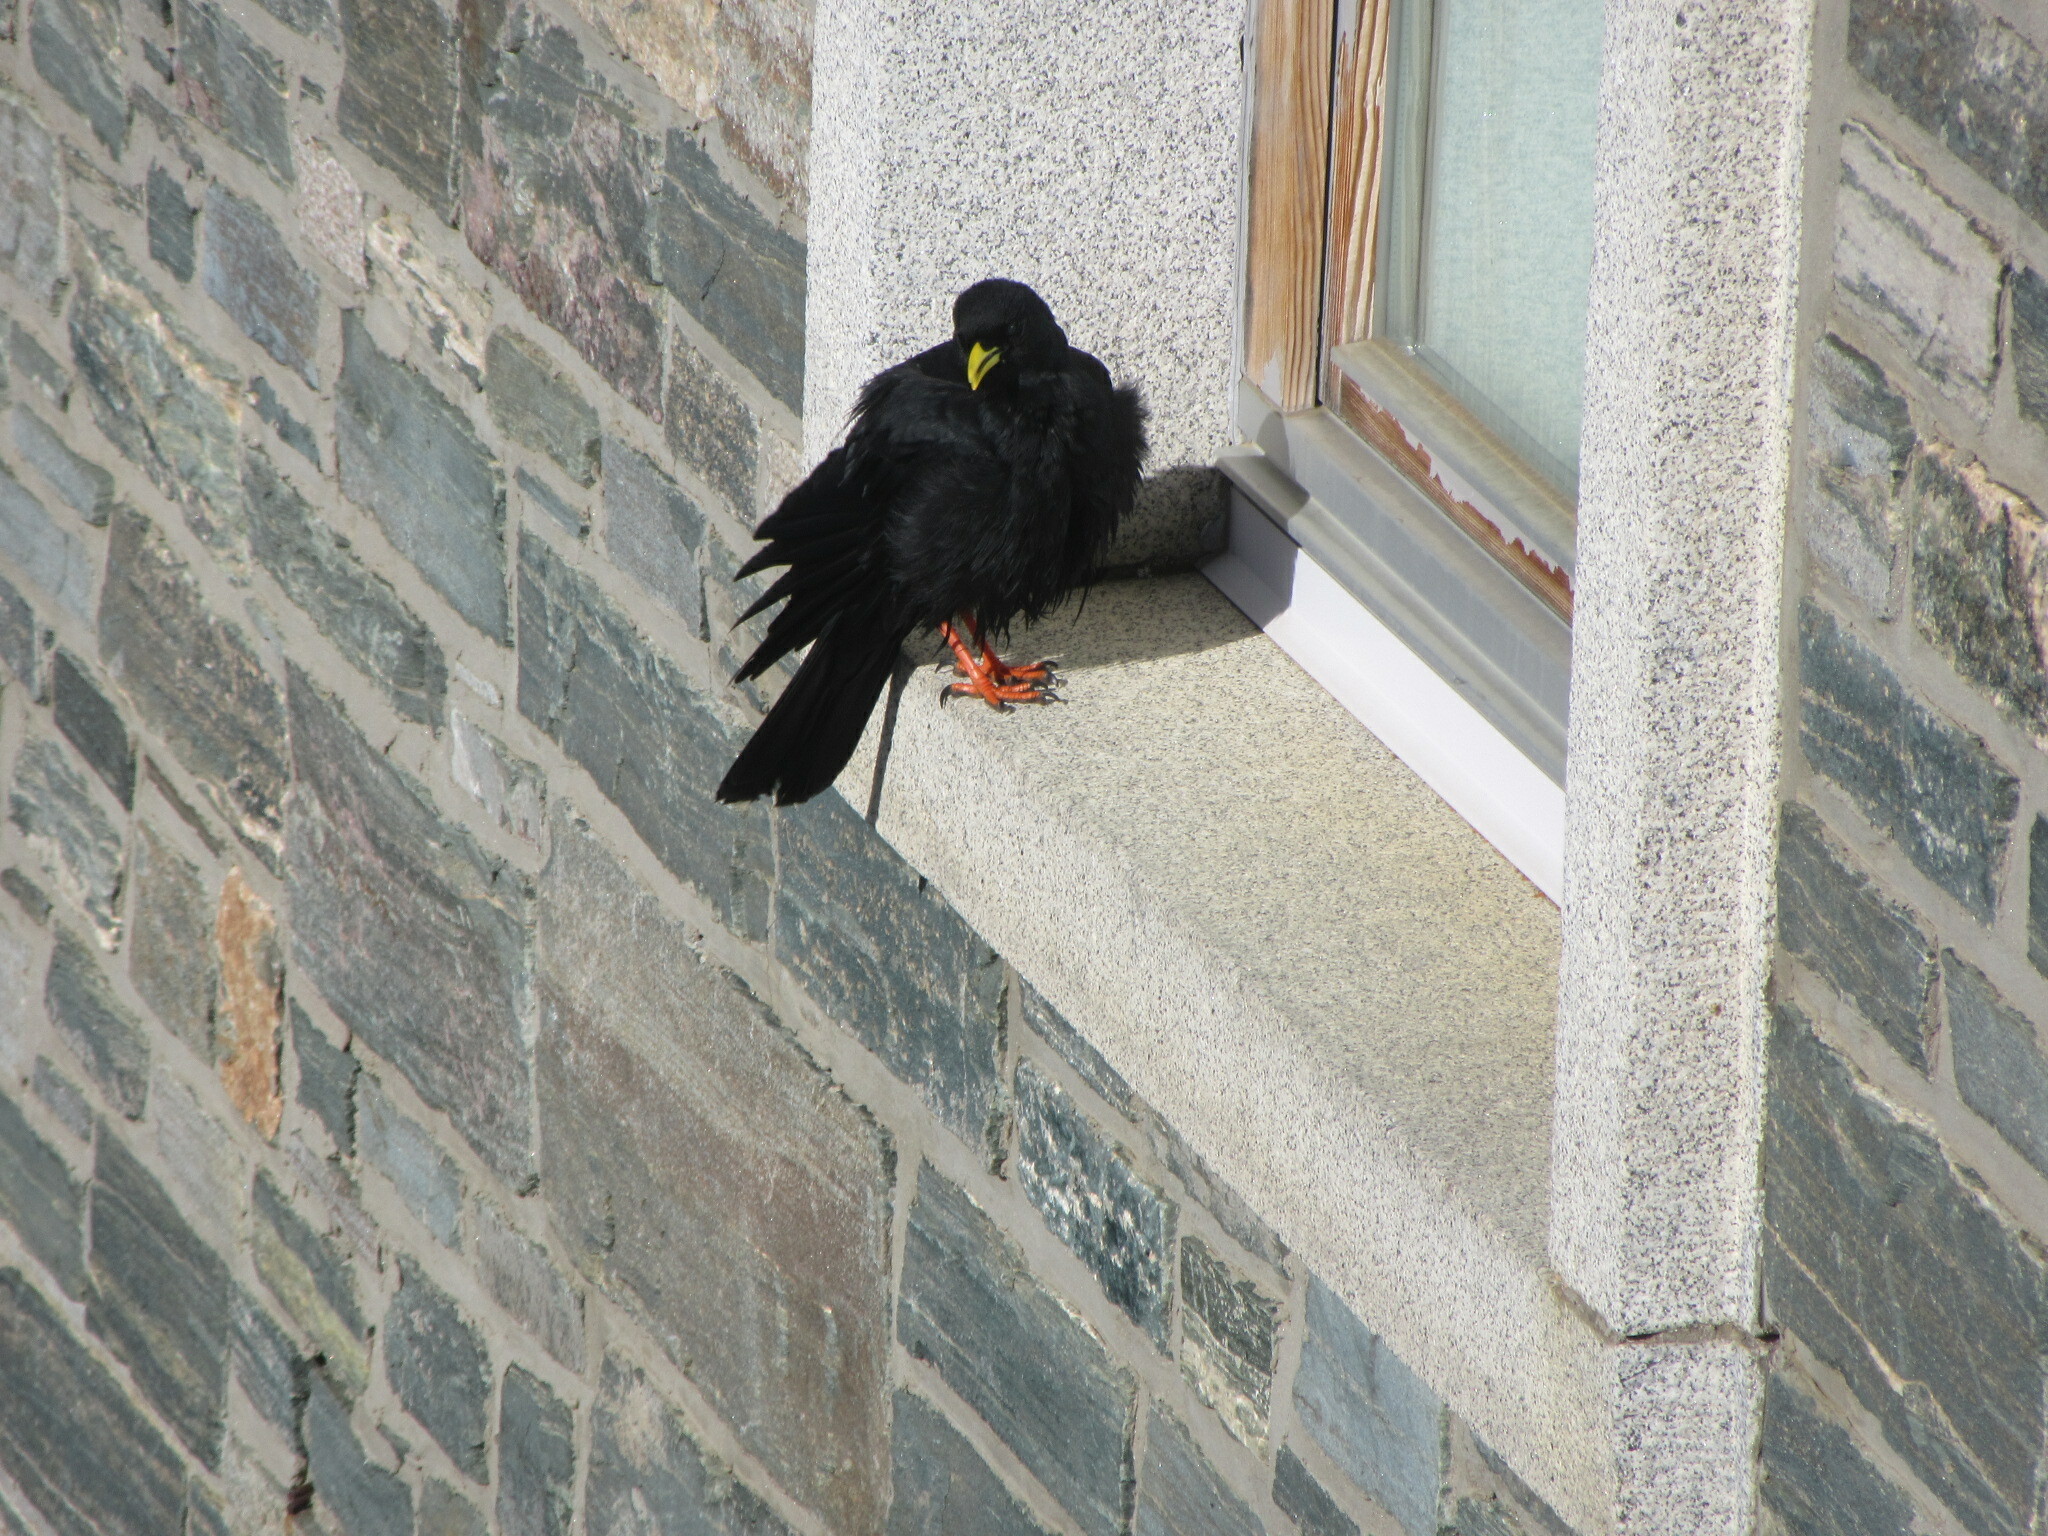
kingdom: Animalia
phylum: Chordata
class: Aves
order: Passeriformes
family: Corvidae
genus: Pyrrhocorax
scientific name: Pyrrhocorax graculus
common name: Alpine chough
